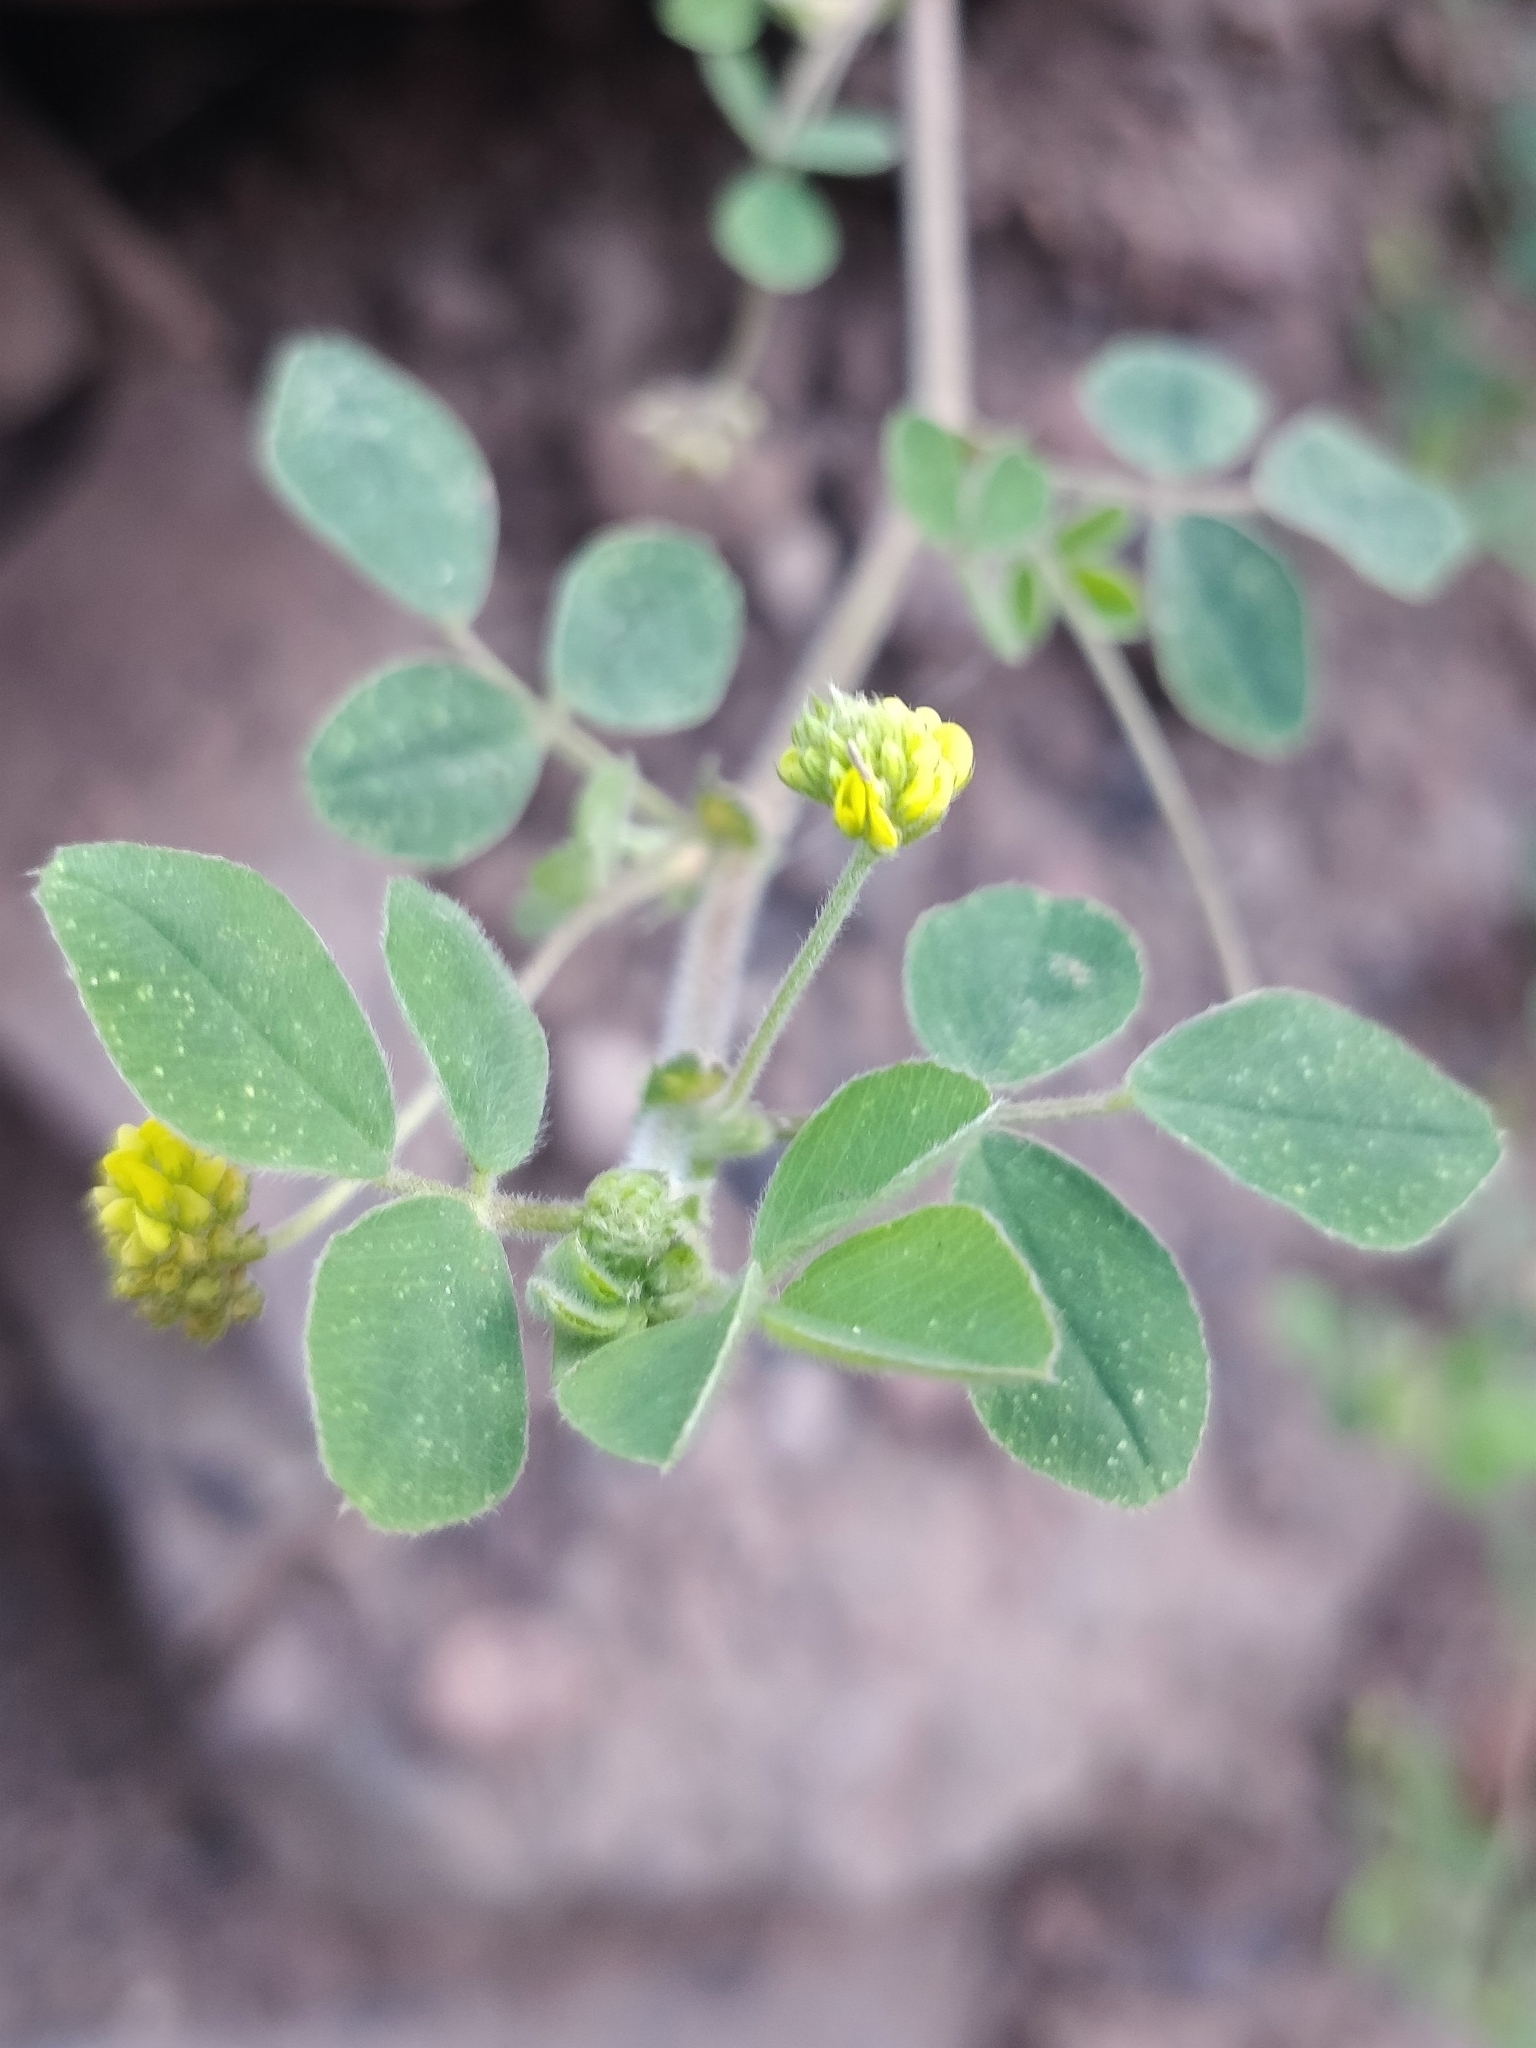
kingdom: Plantae
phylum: Tracheophyta
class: Magnoliopsida
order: Fabales
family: Fabaceae
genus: Trifolium
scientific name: Trifolium campestre
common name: Field clover
